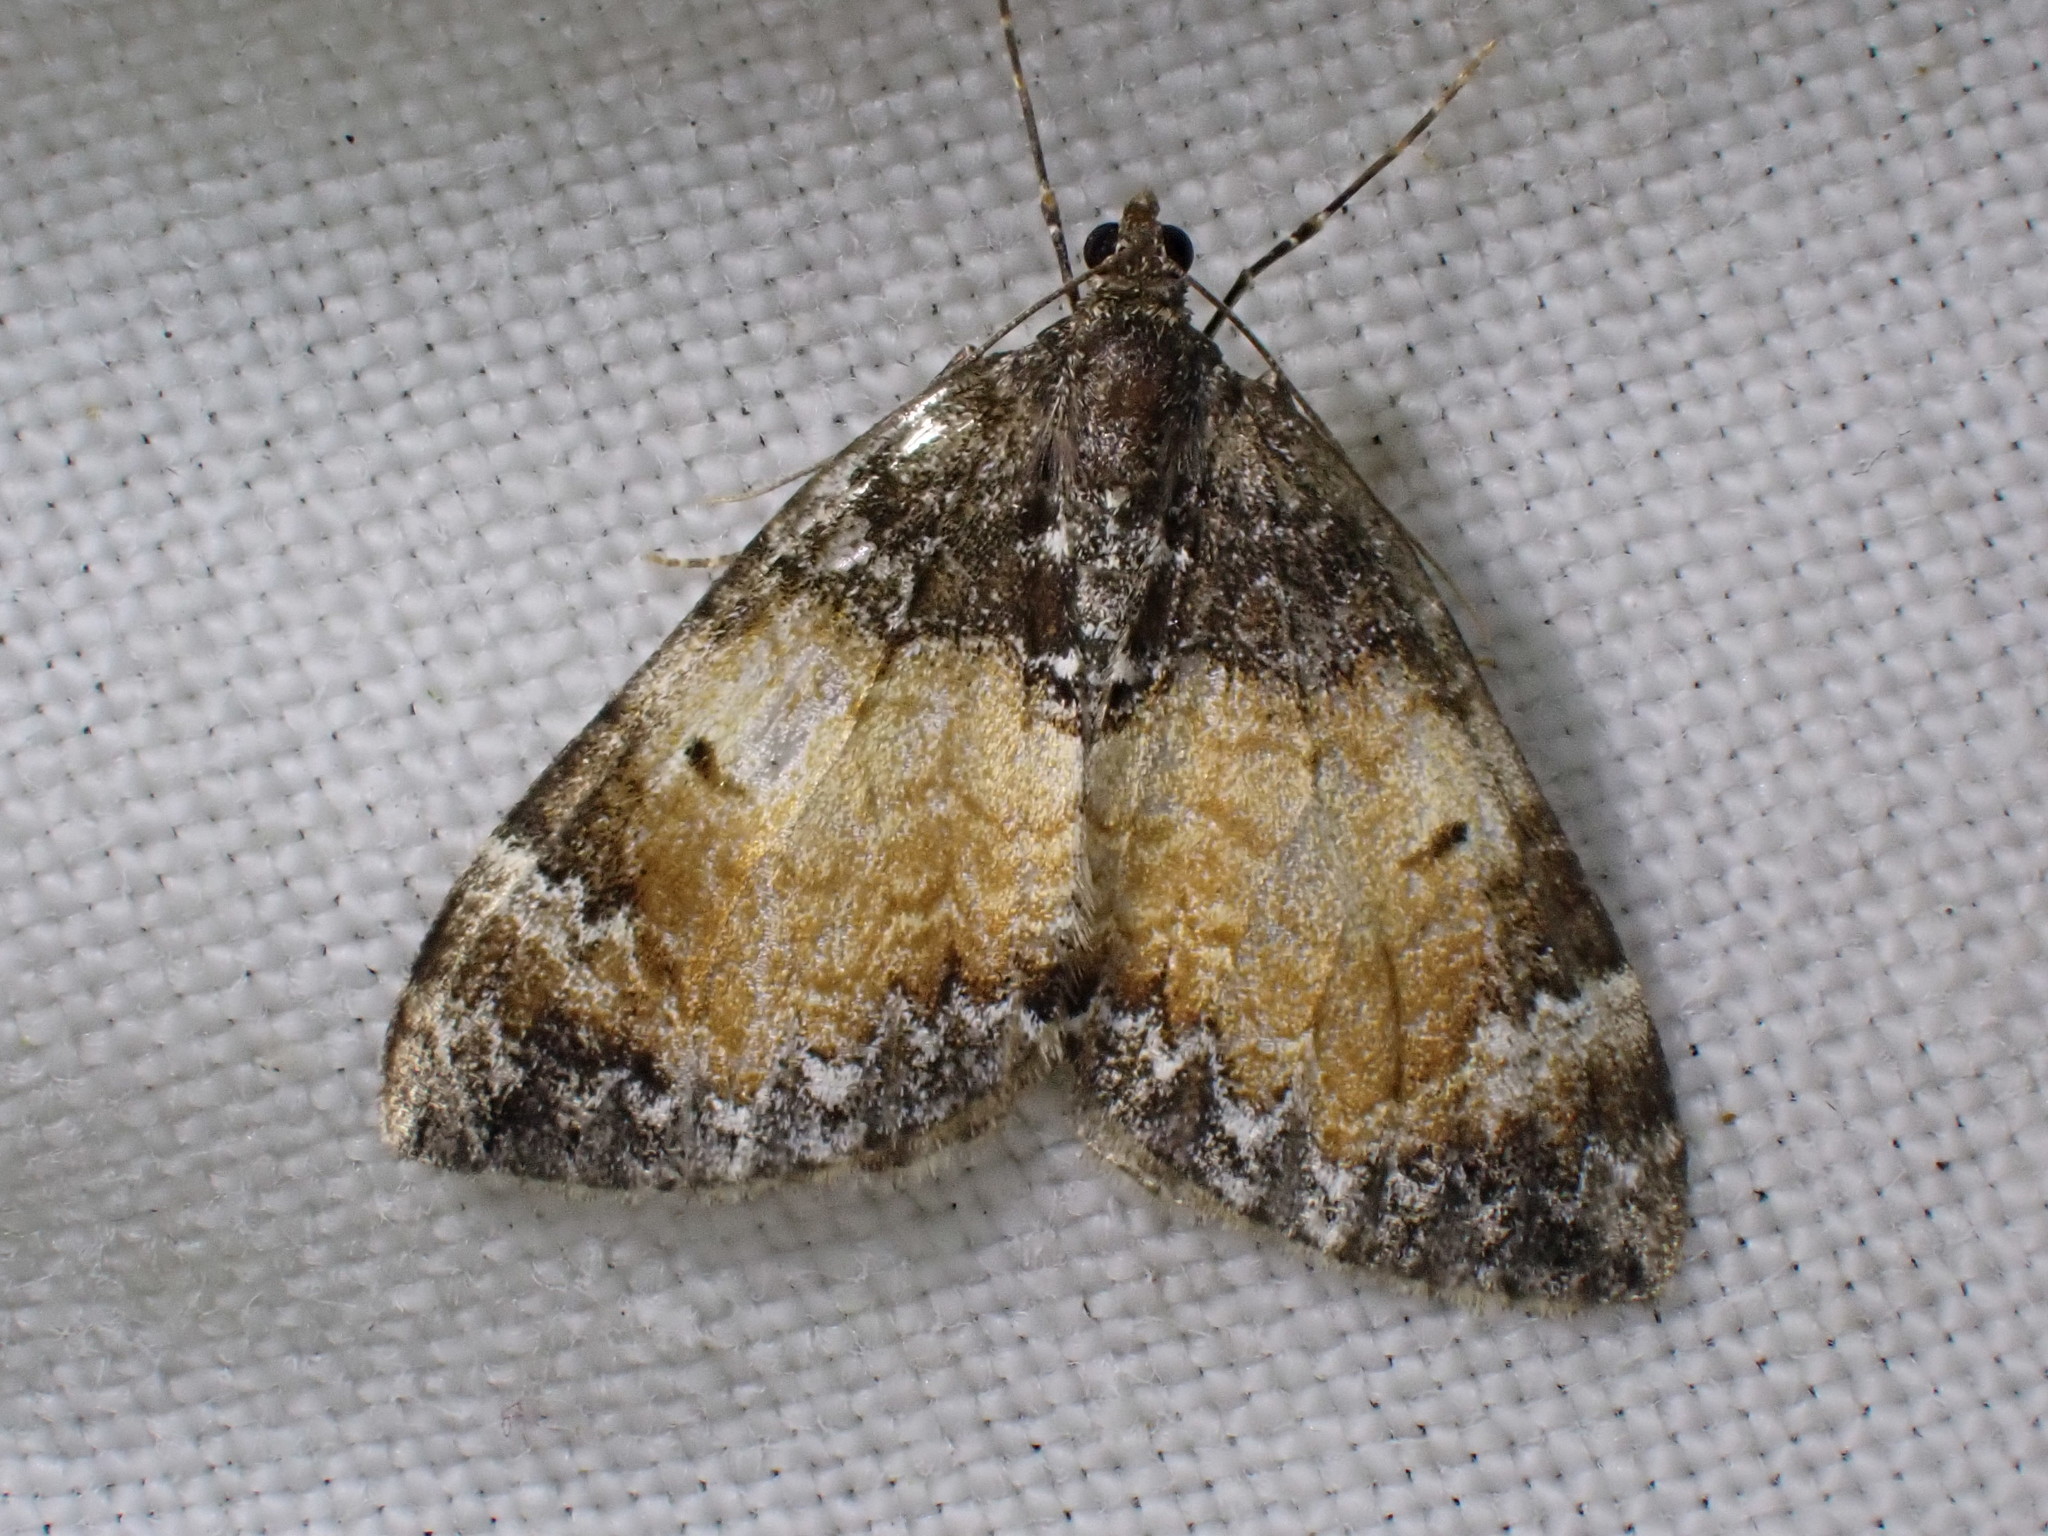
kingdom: Animalia
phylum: Arthropoda
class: Insecta
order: Lepidoptera
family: Geometridae
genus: Dysstroma
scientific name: Dysstroma truncata
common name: Common marbled carpet
